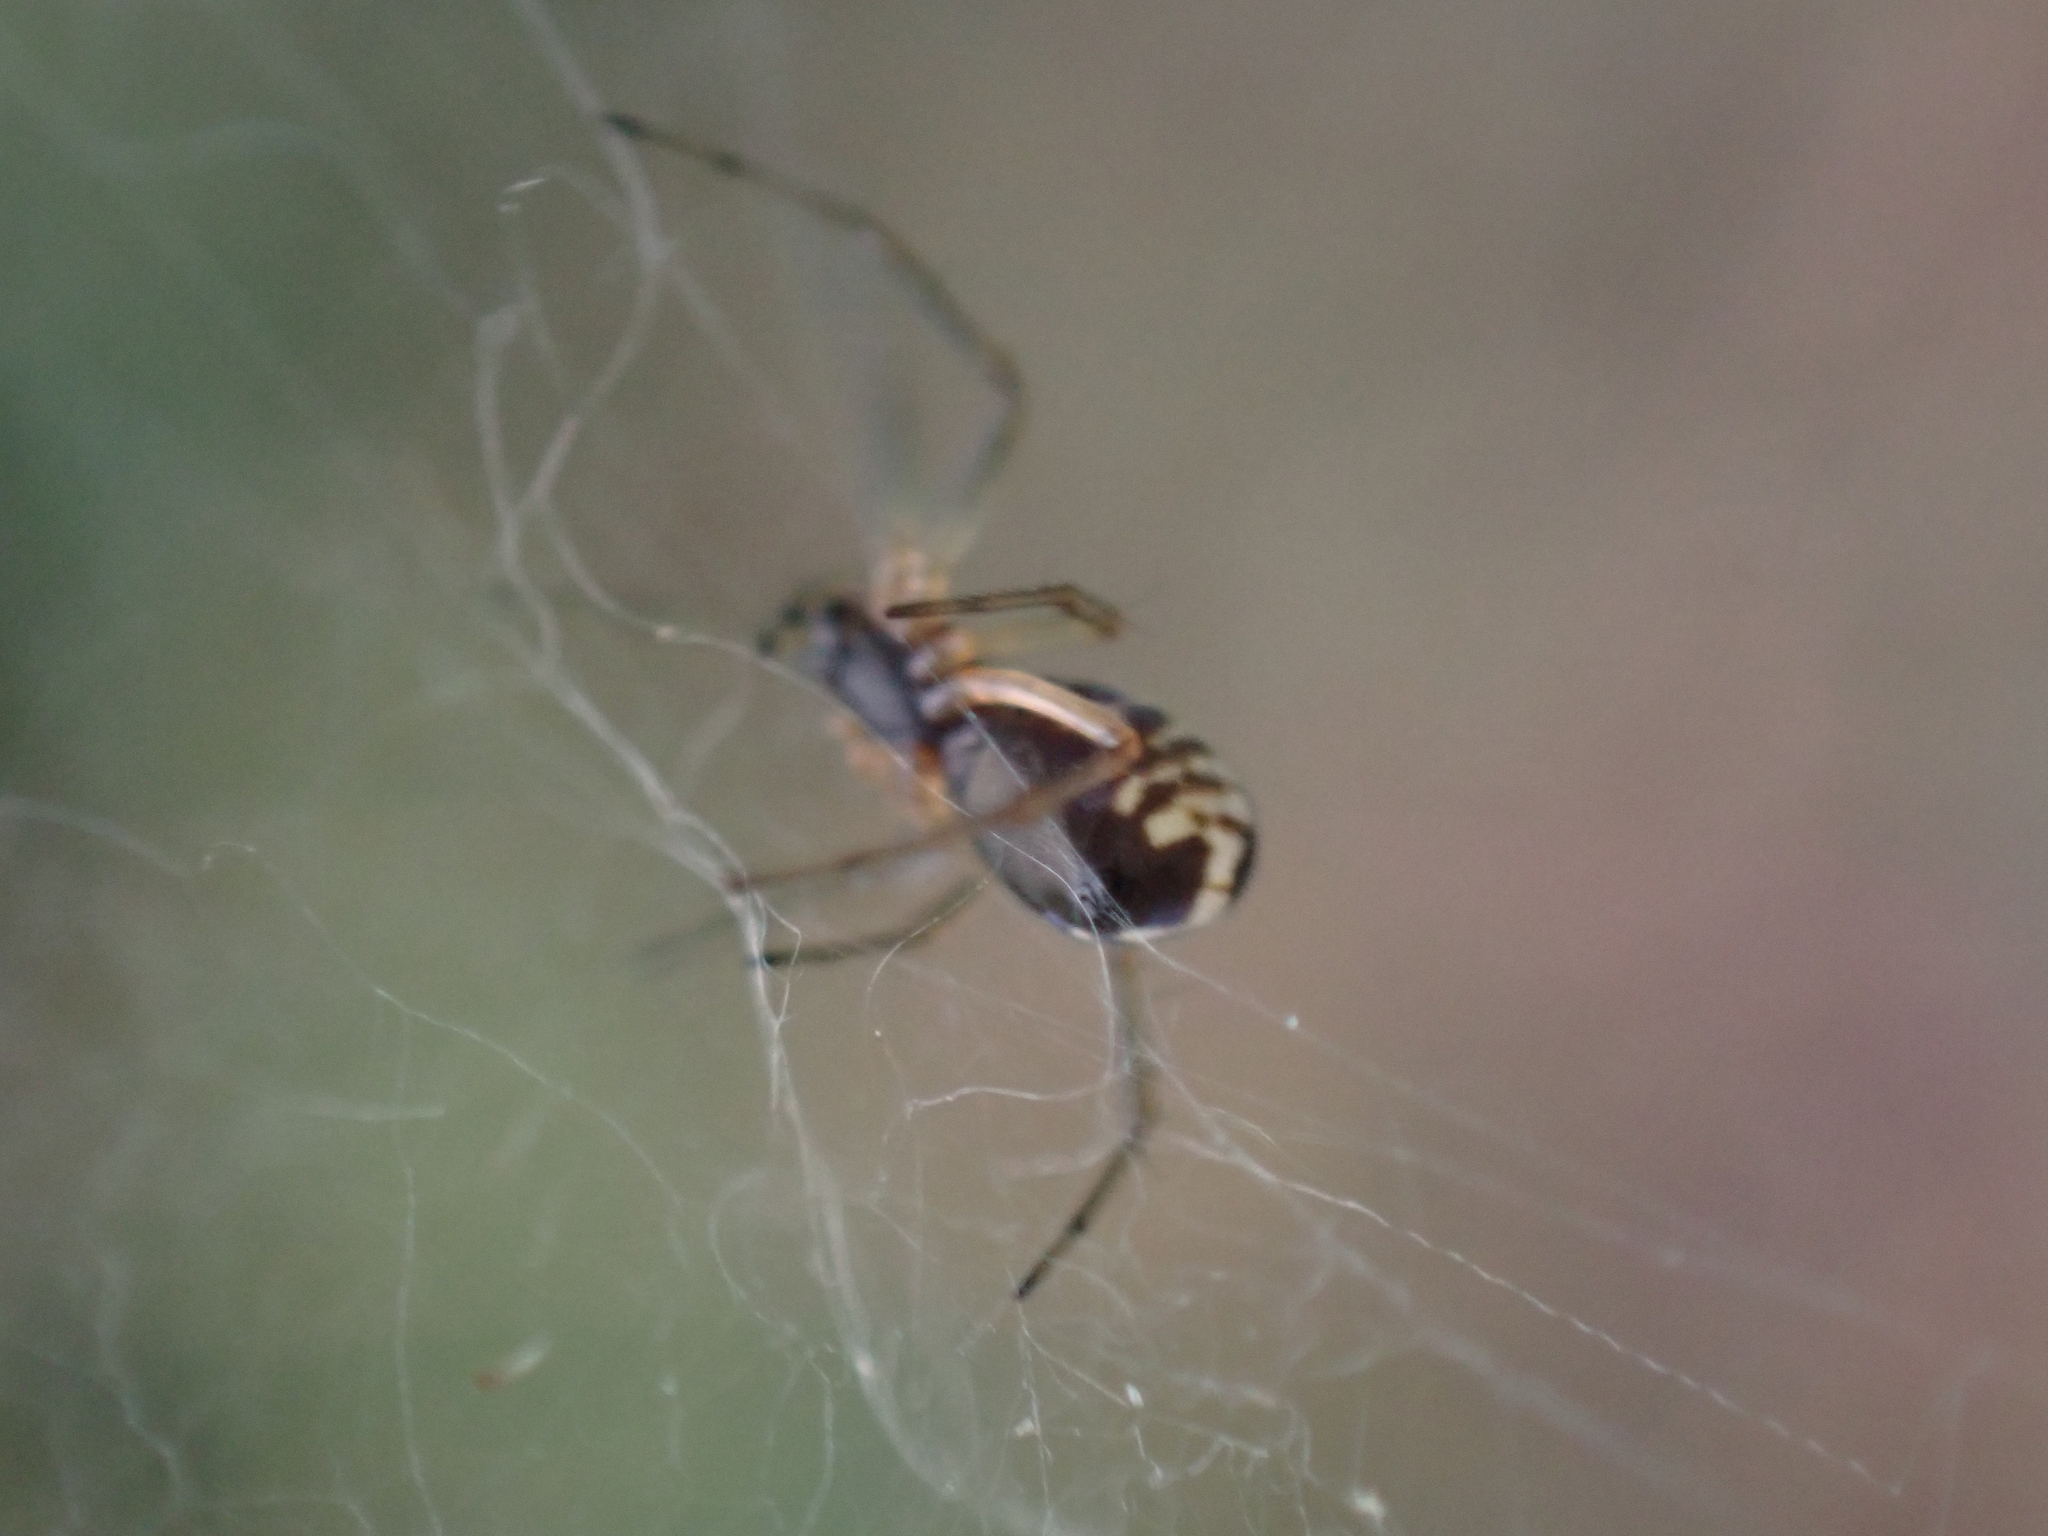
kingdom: Animalia
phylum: Arthropoda
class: Arachnida
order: Araneae
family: Linyphiidae
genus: Frontinella
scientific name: Frontinella pyramitela
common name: Bowl-and-doily spider
